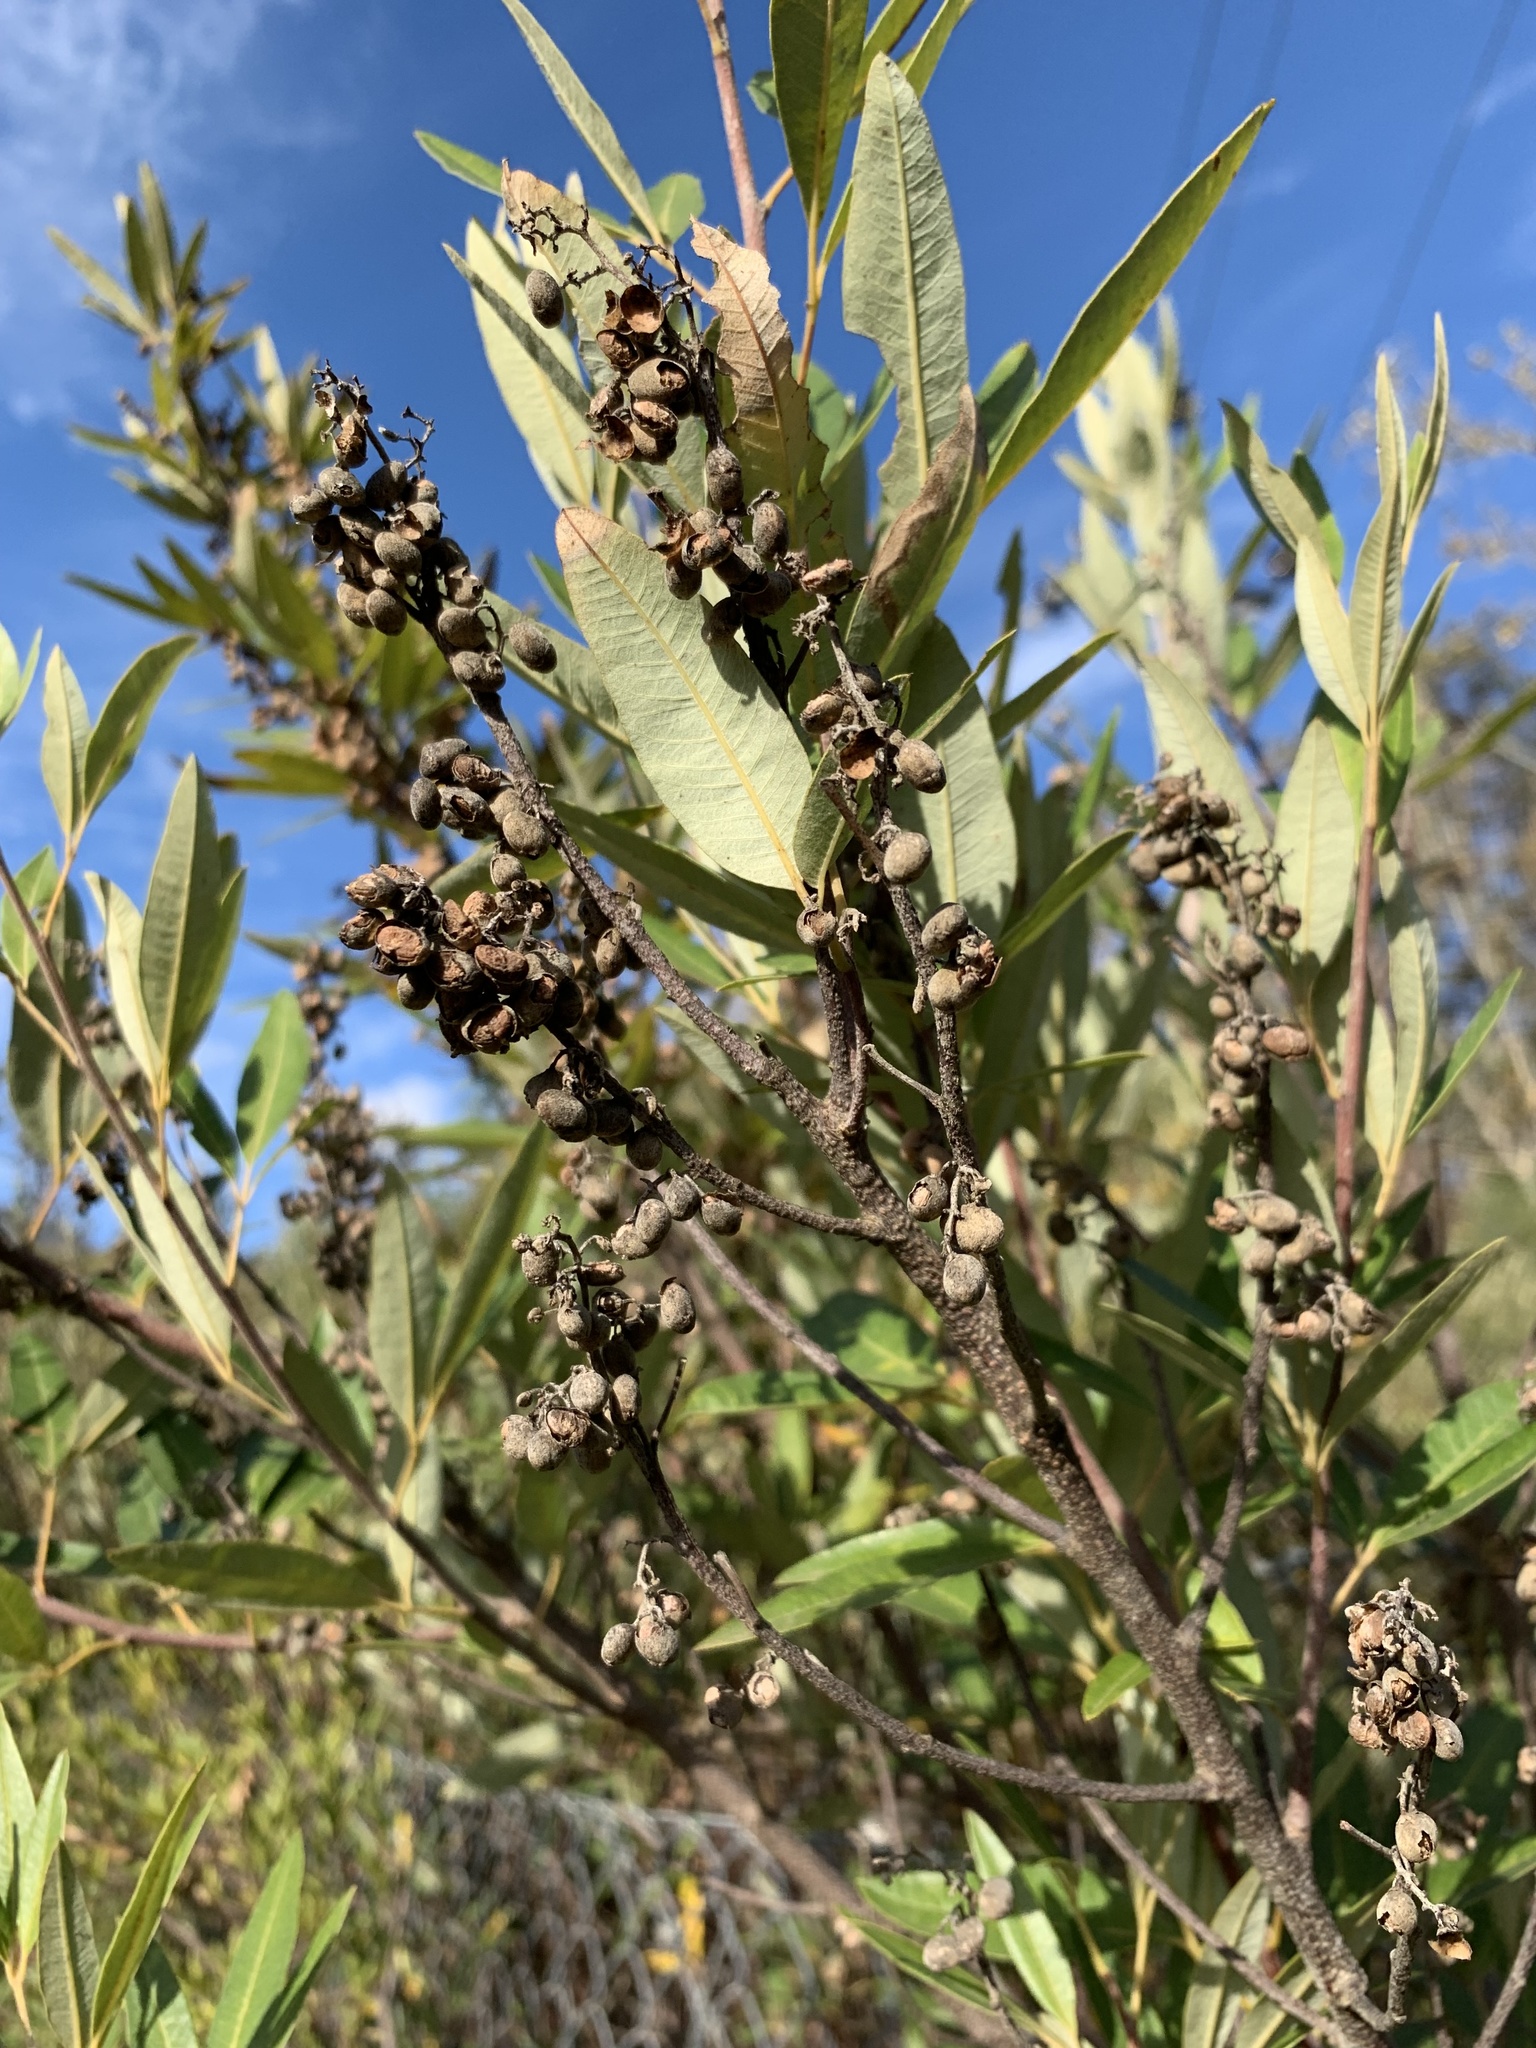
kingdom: Plantae
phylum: Tracheophyta
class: Magnoliopsida
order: Sapindales
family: Anacardiaceae
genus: Searsia
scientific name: Searsia angustifolia
